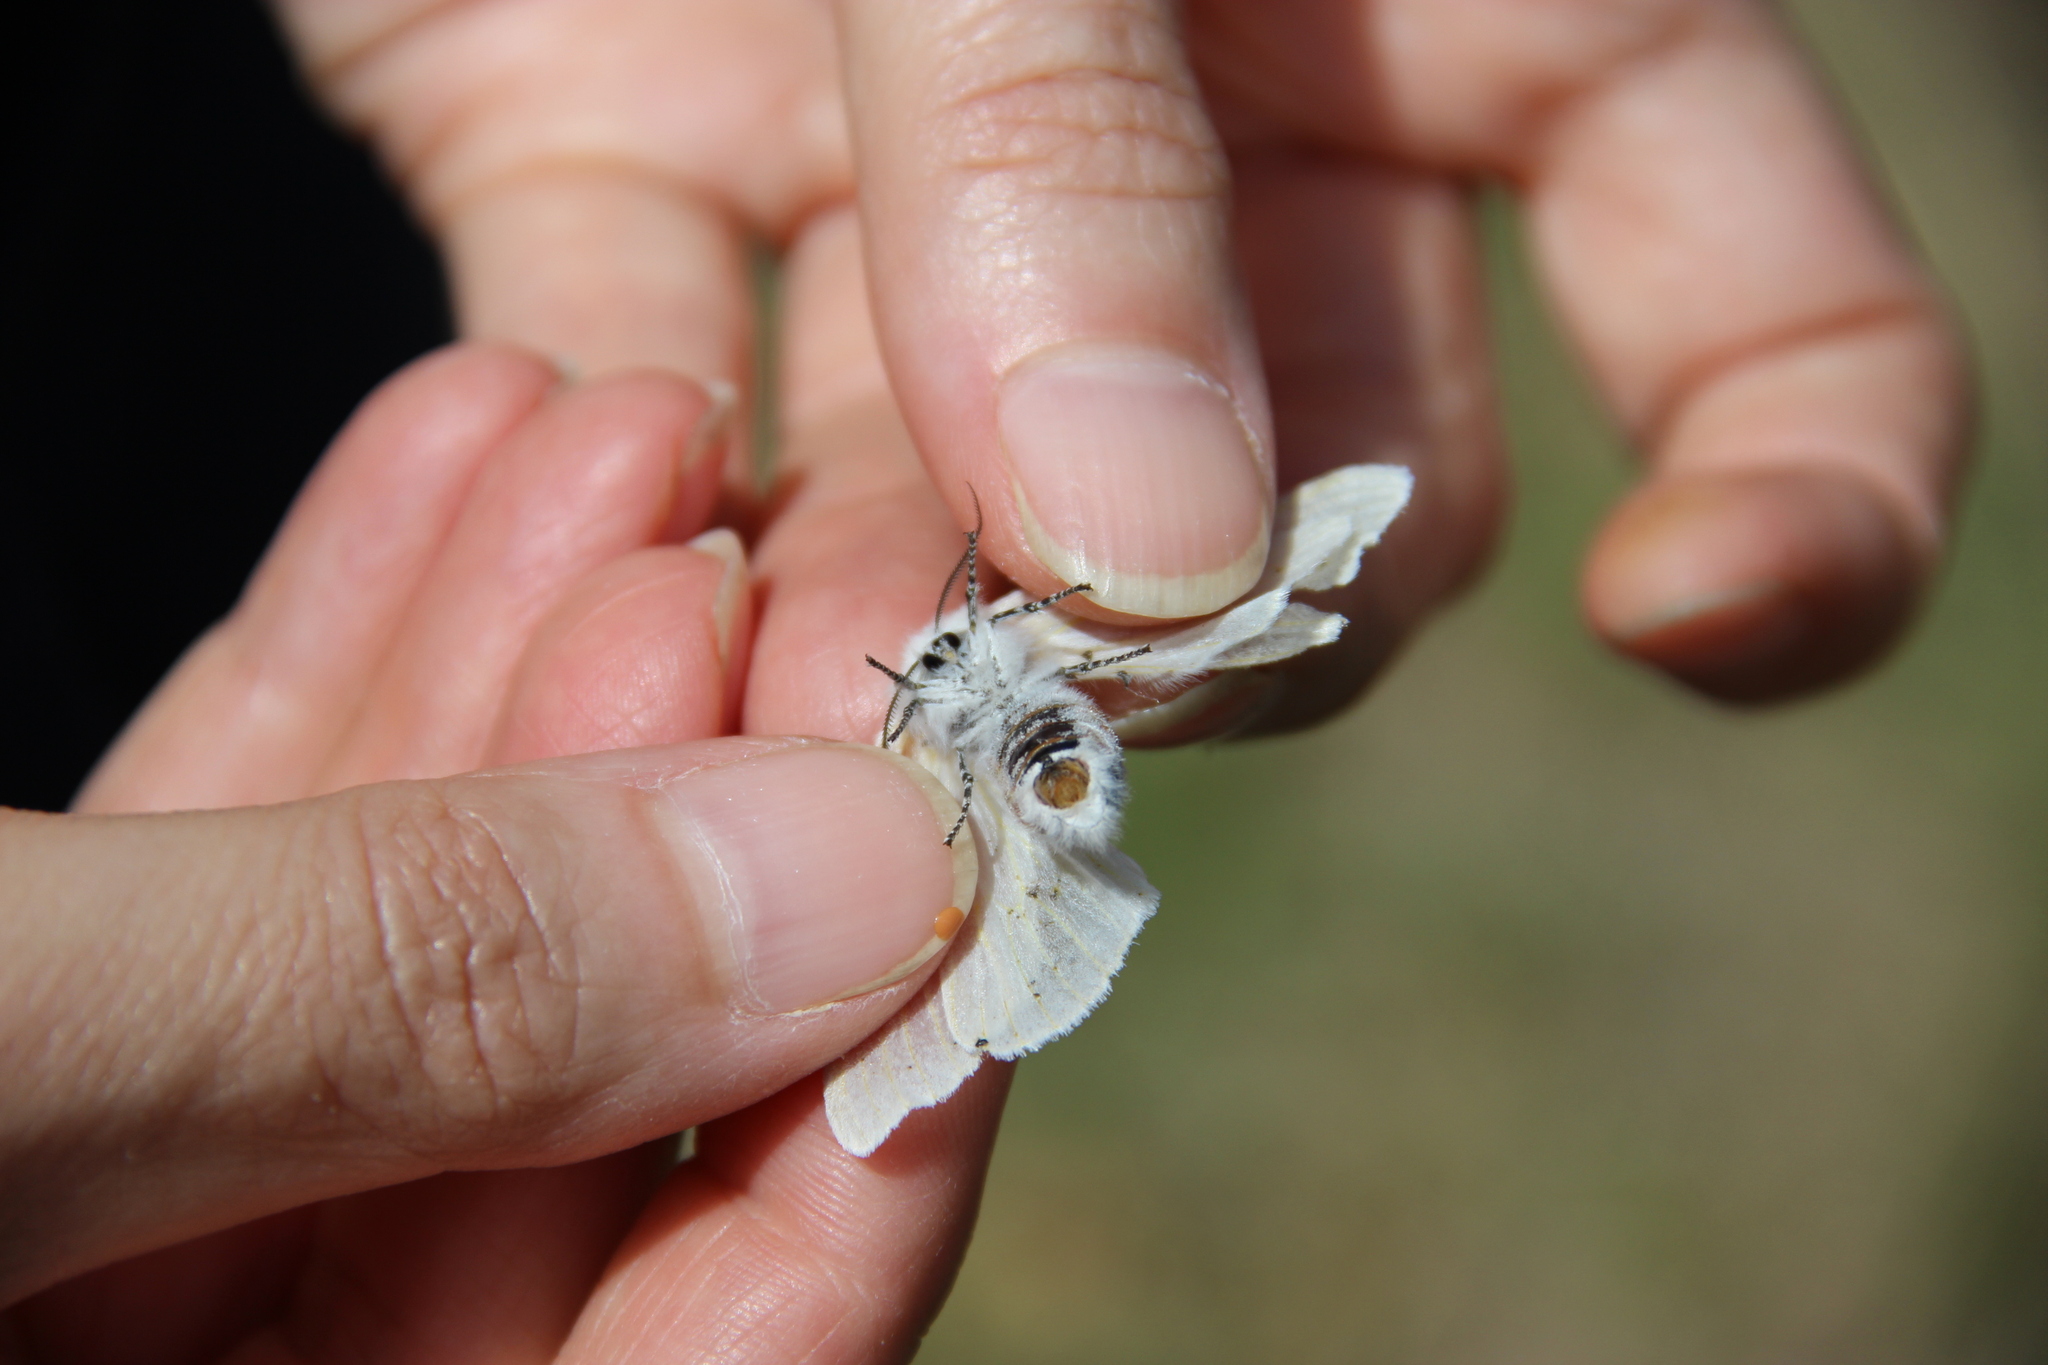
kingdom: Animalia
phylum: Arthropoda
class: Insecta
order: Lepidoptera
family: Erebidae
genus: Leucoma
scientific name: Leucoma salicis
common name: White satin moth
